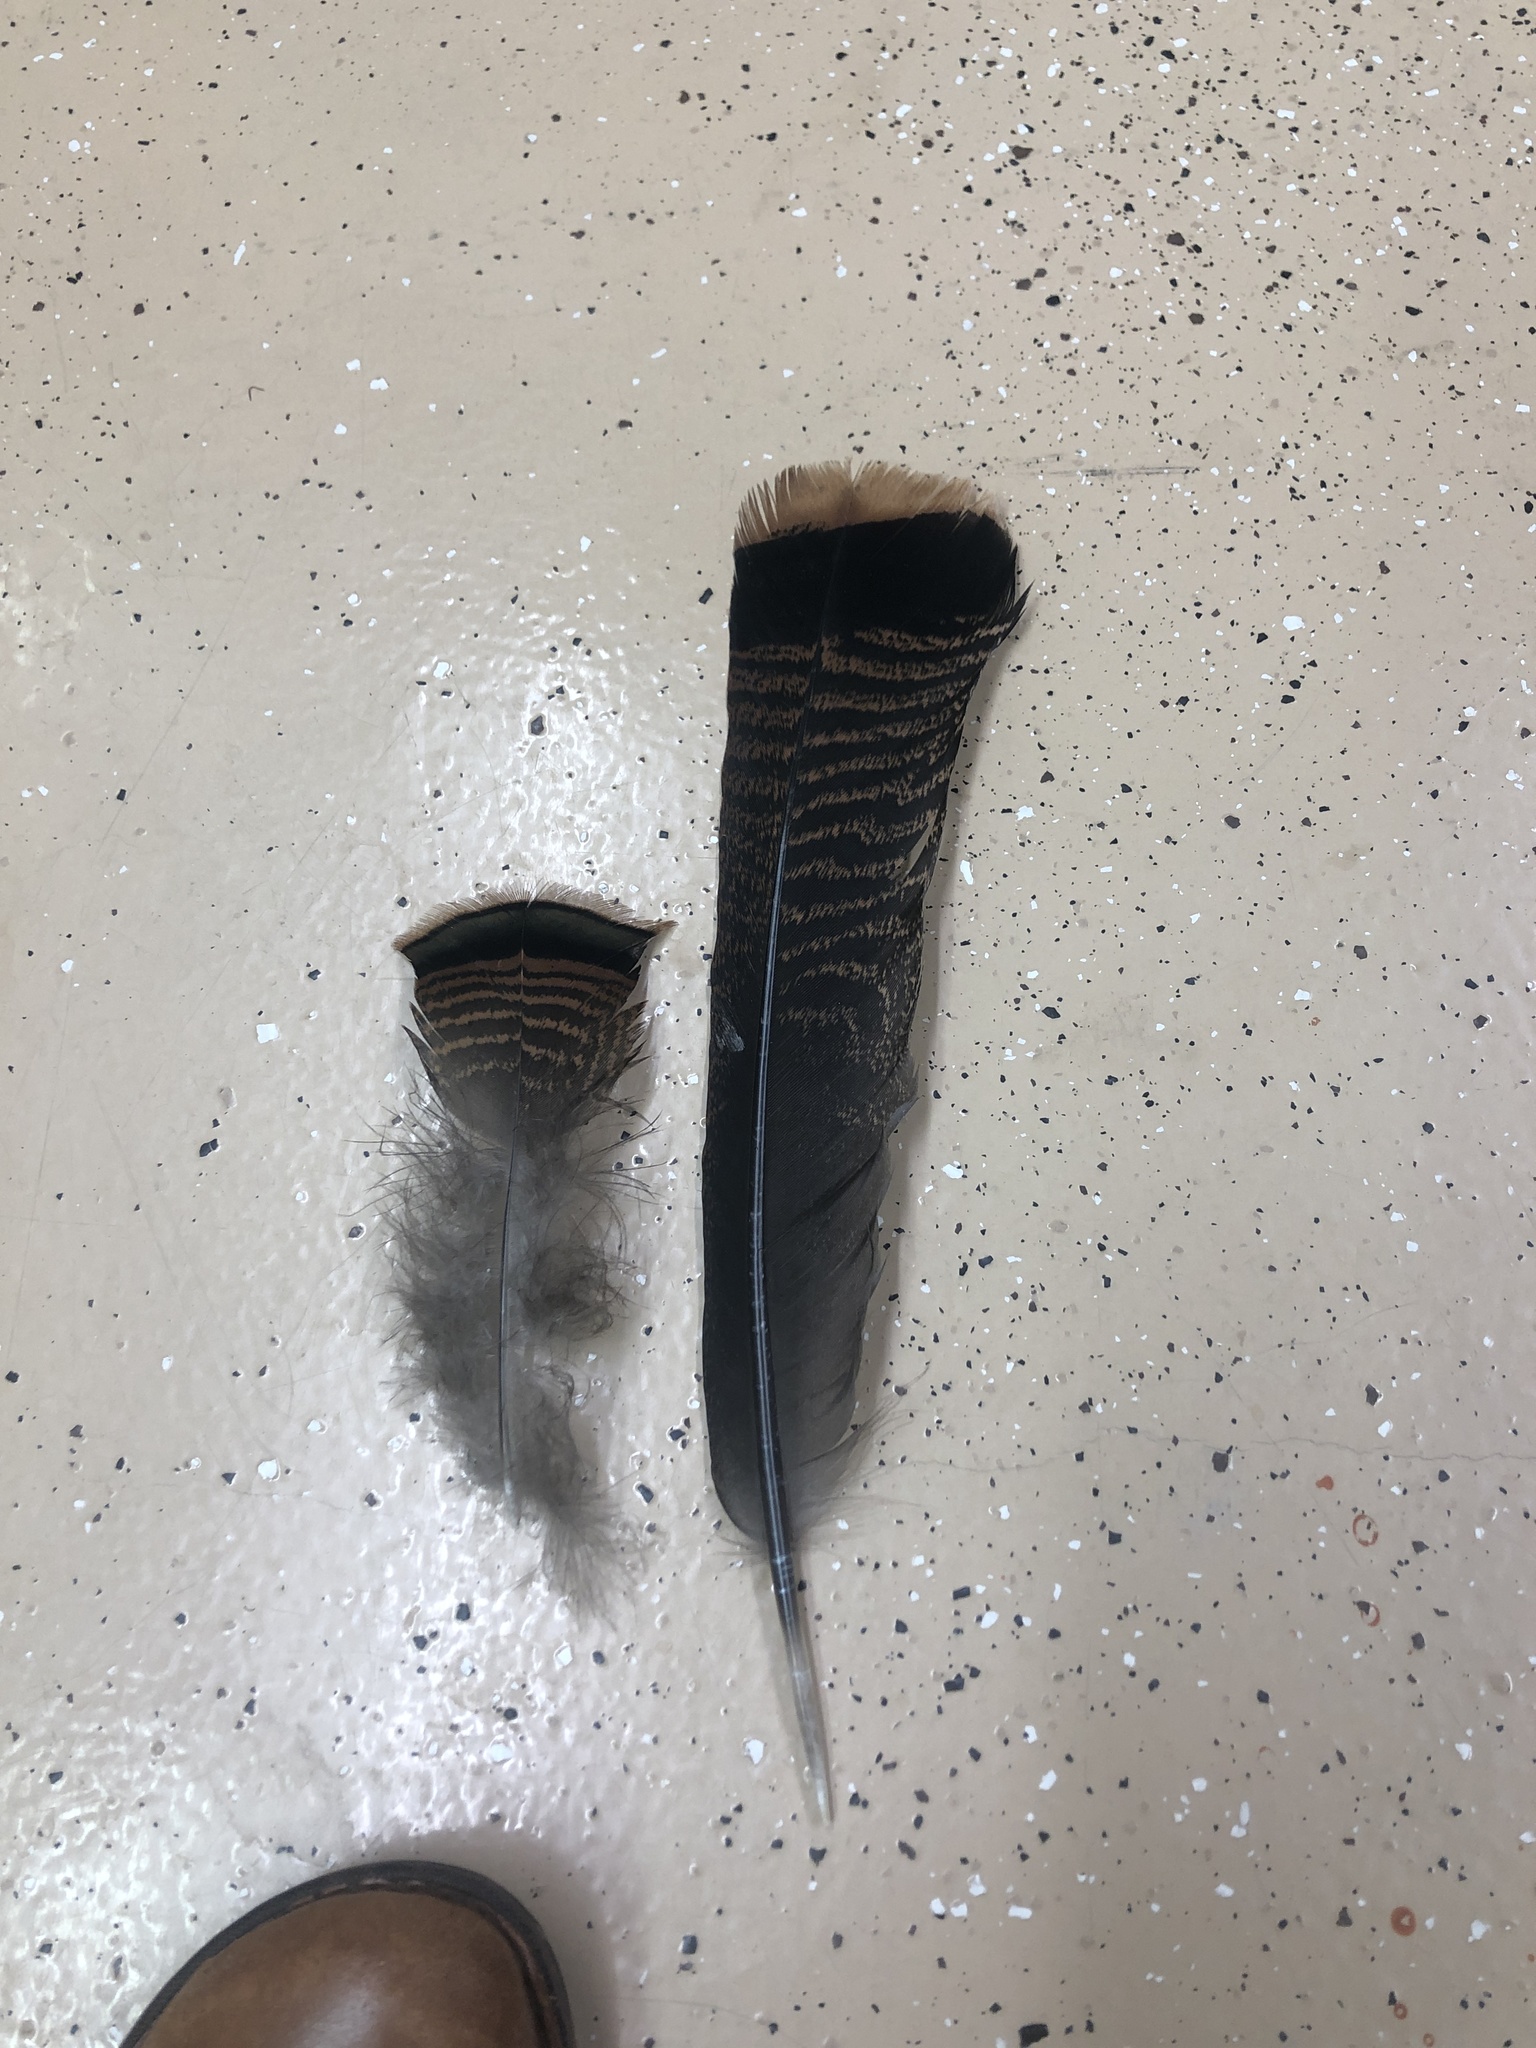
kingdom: Animalia
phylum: Chordata
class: Aves
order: Galliformes
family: Phasianidae
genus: Meleagris
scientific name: Meleagris gallopavo
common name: Wild turkey
